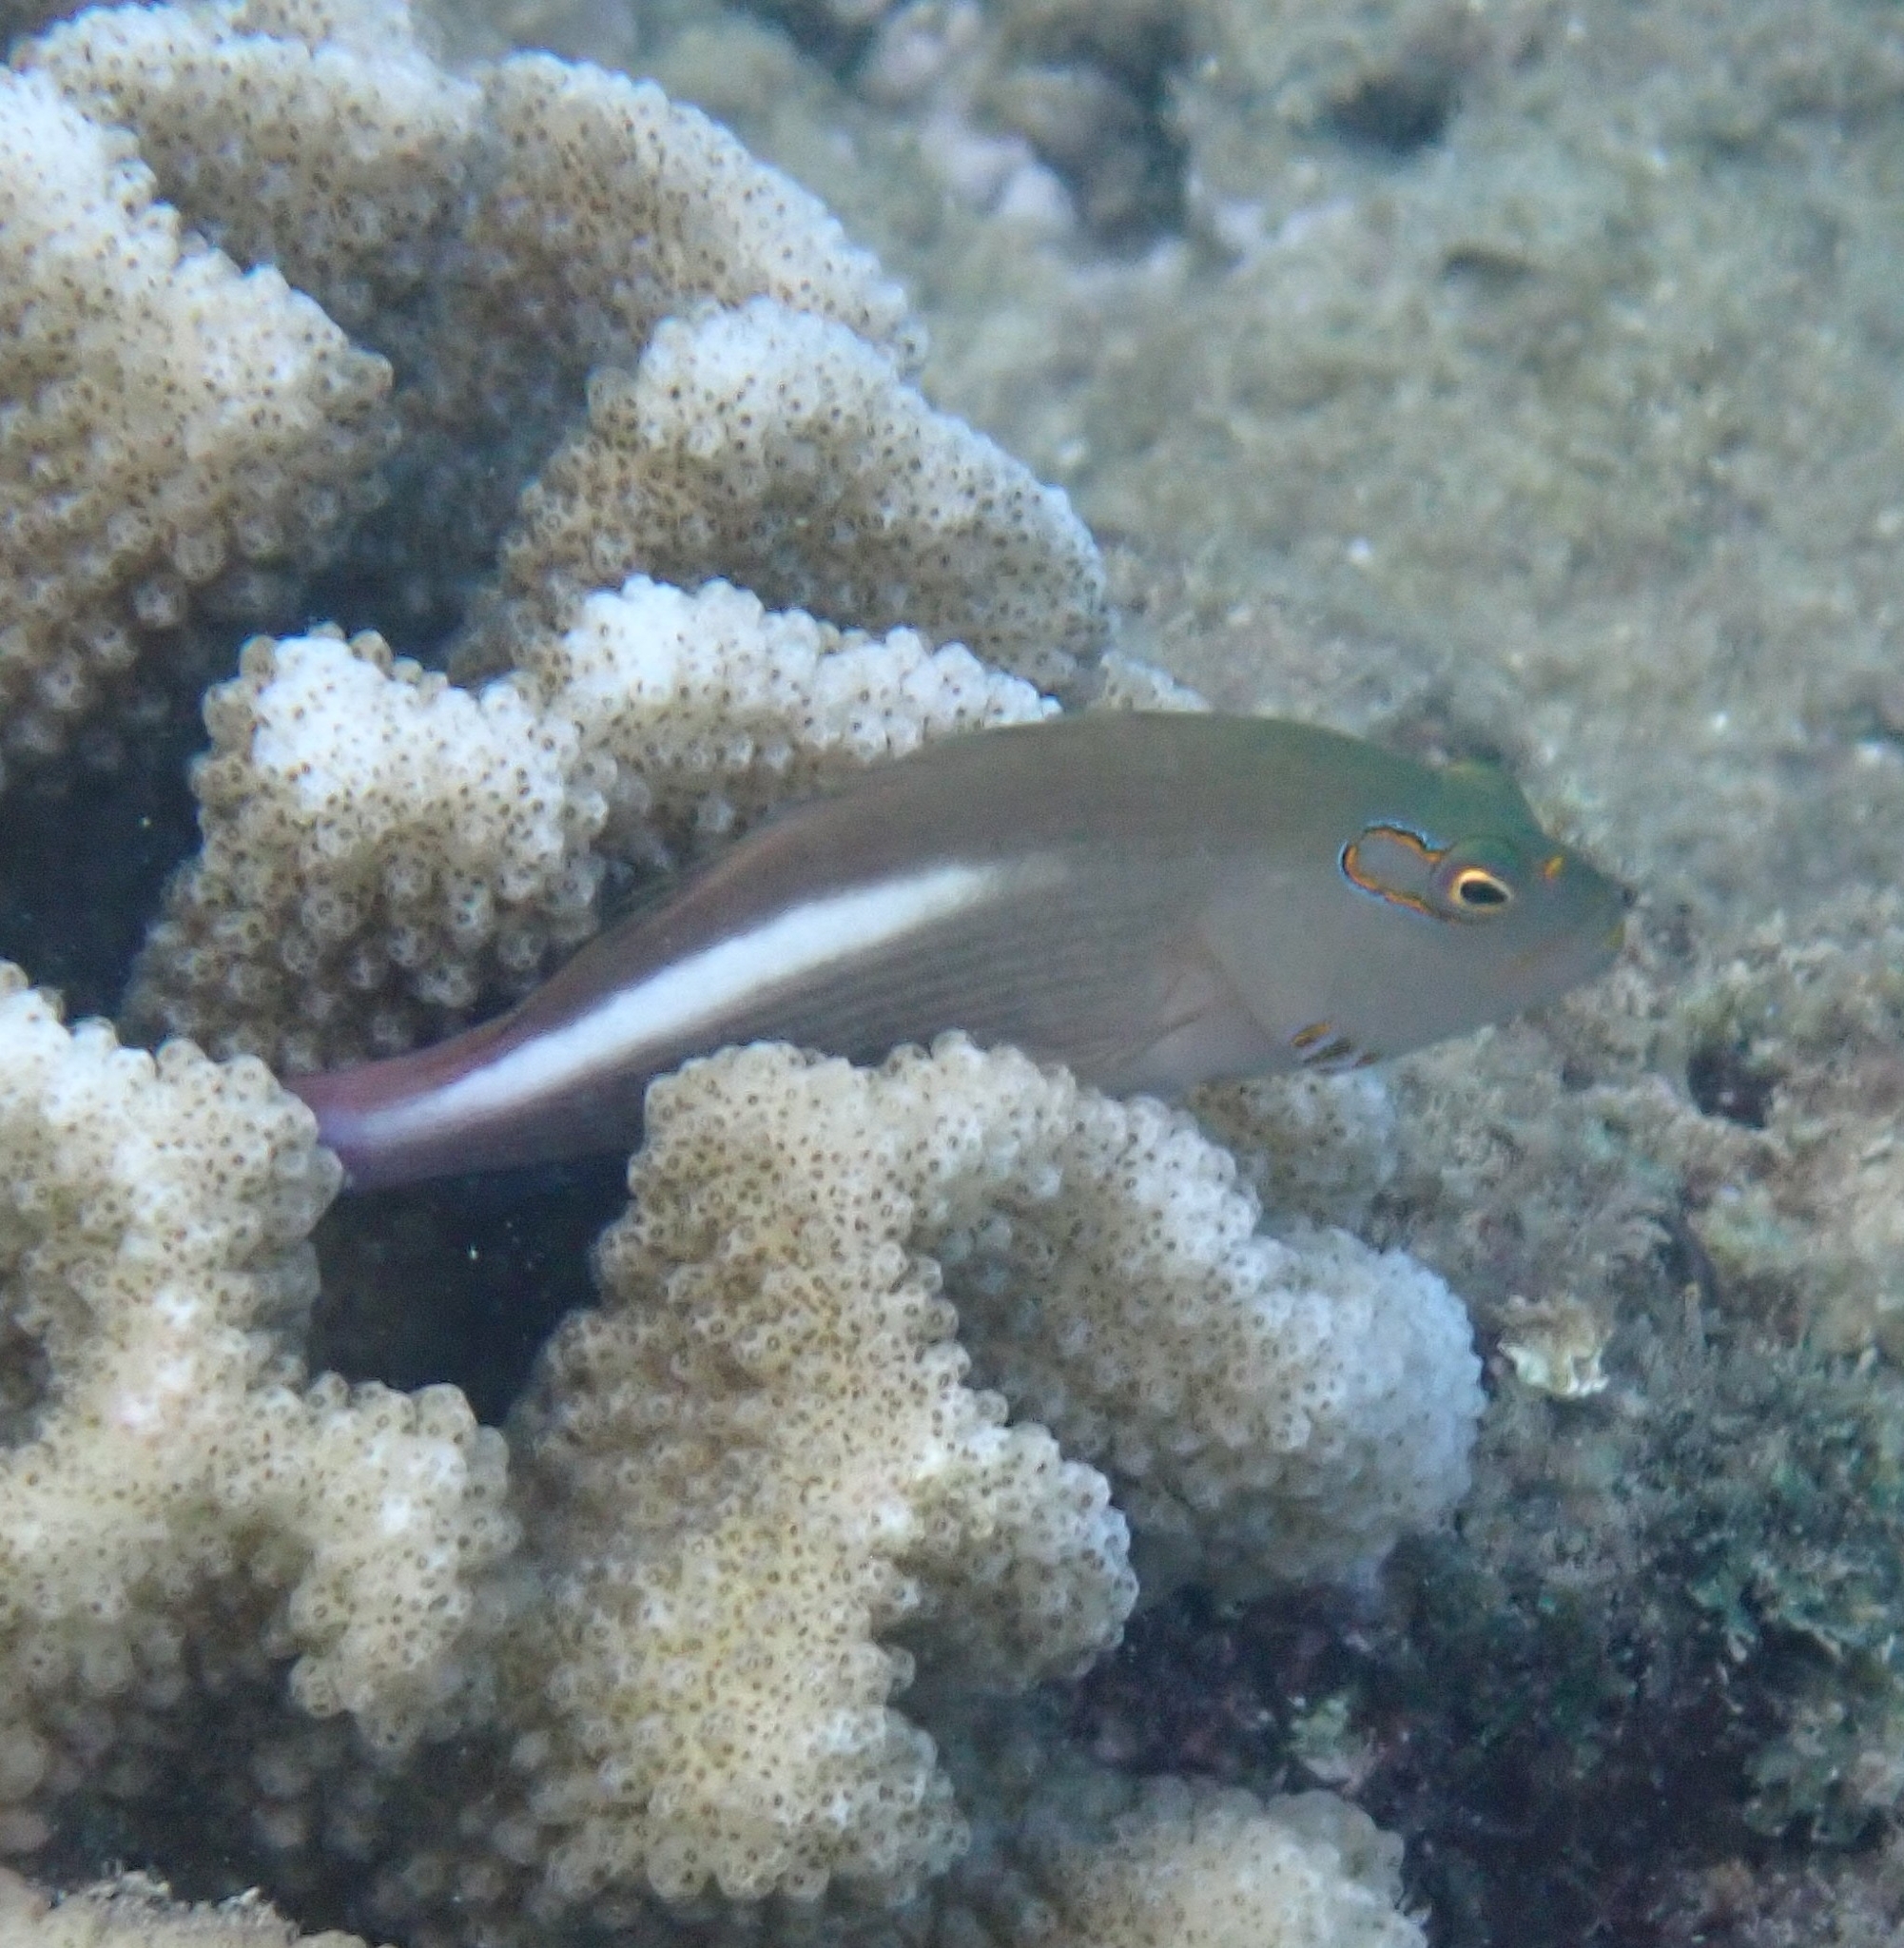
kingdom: Animalia
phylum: Chordata
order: Perciformes
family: Cirrhitidae
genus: Paracirrhites
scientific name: Paracirrhites arcatus
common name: Arc-eye hawkfish
